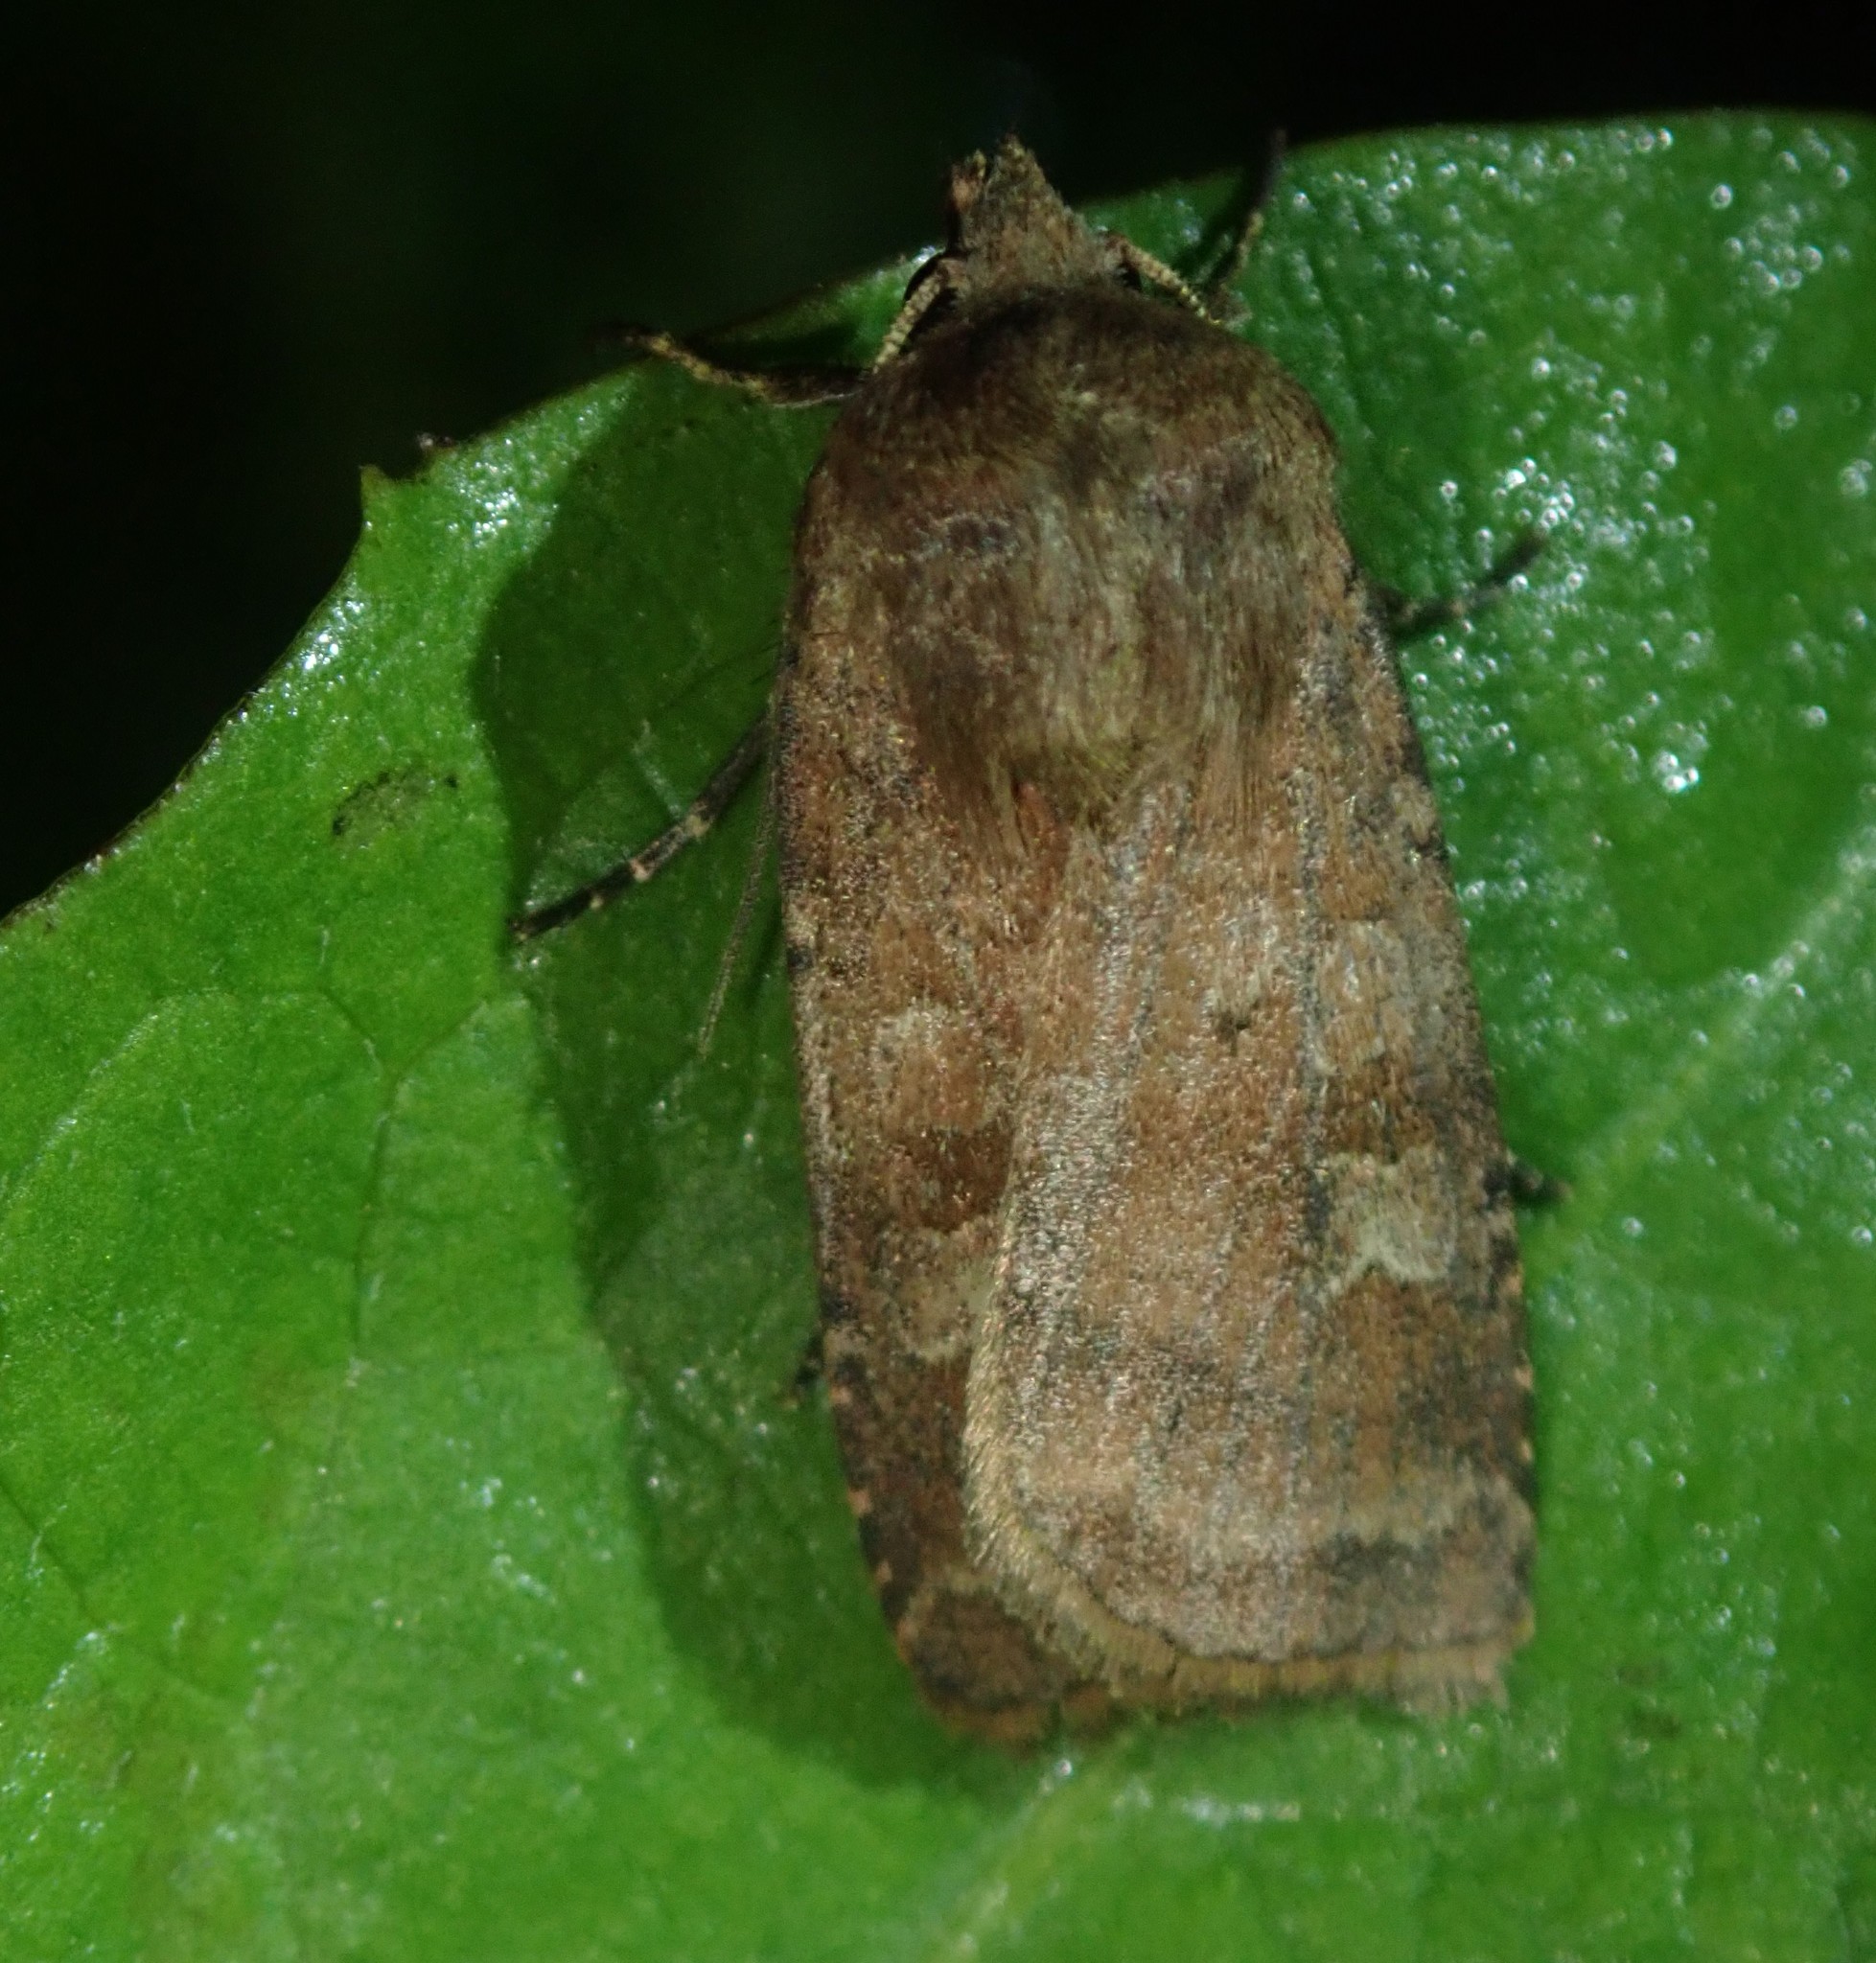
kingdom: Animalia
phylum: Arthropoda
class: Insecta
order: Lepidoptera
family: Noctuidae
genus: Diarsia
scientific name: Diarsia rubi
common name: Small square-spot
